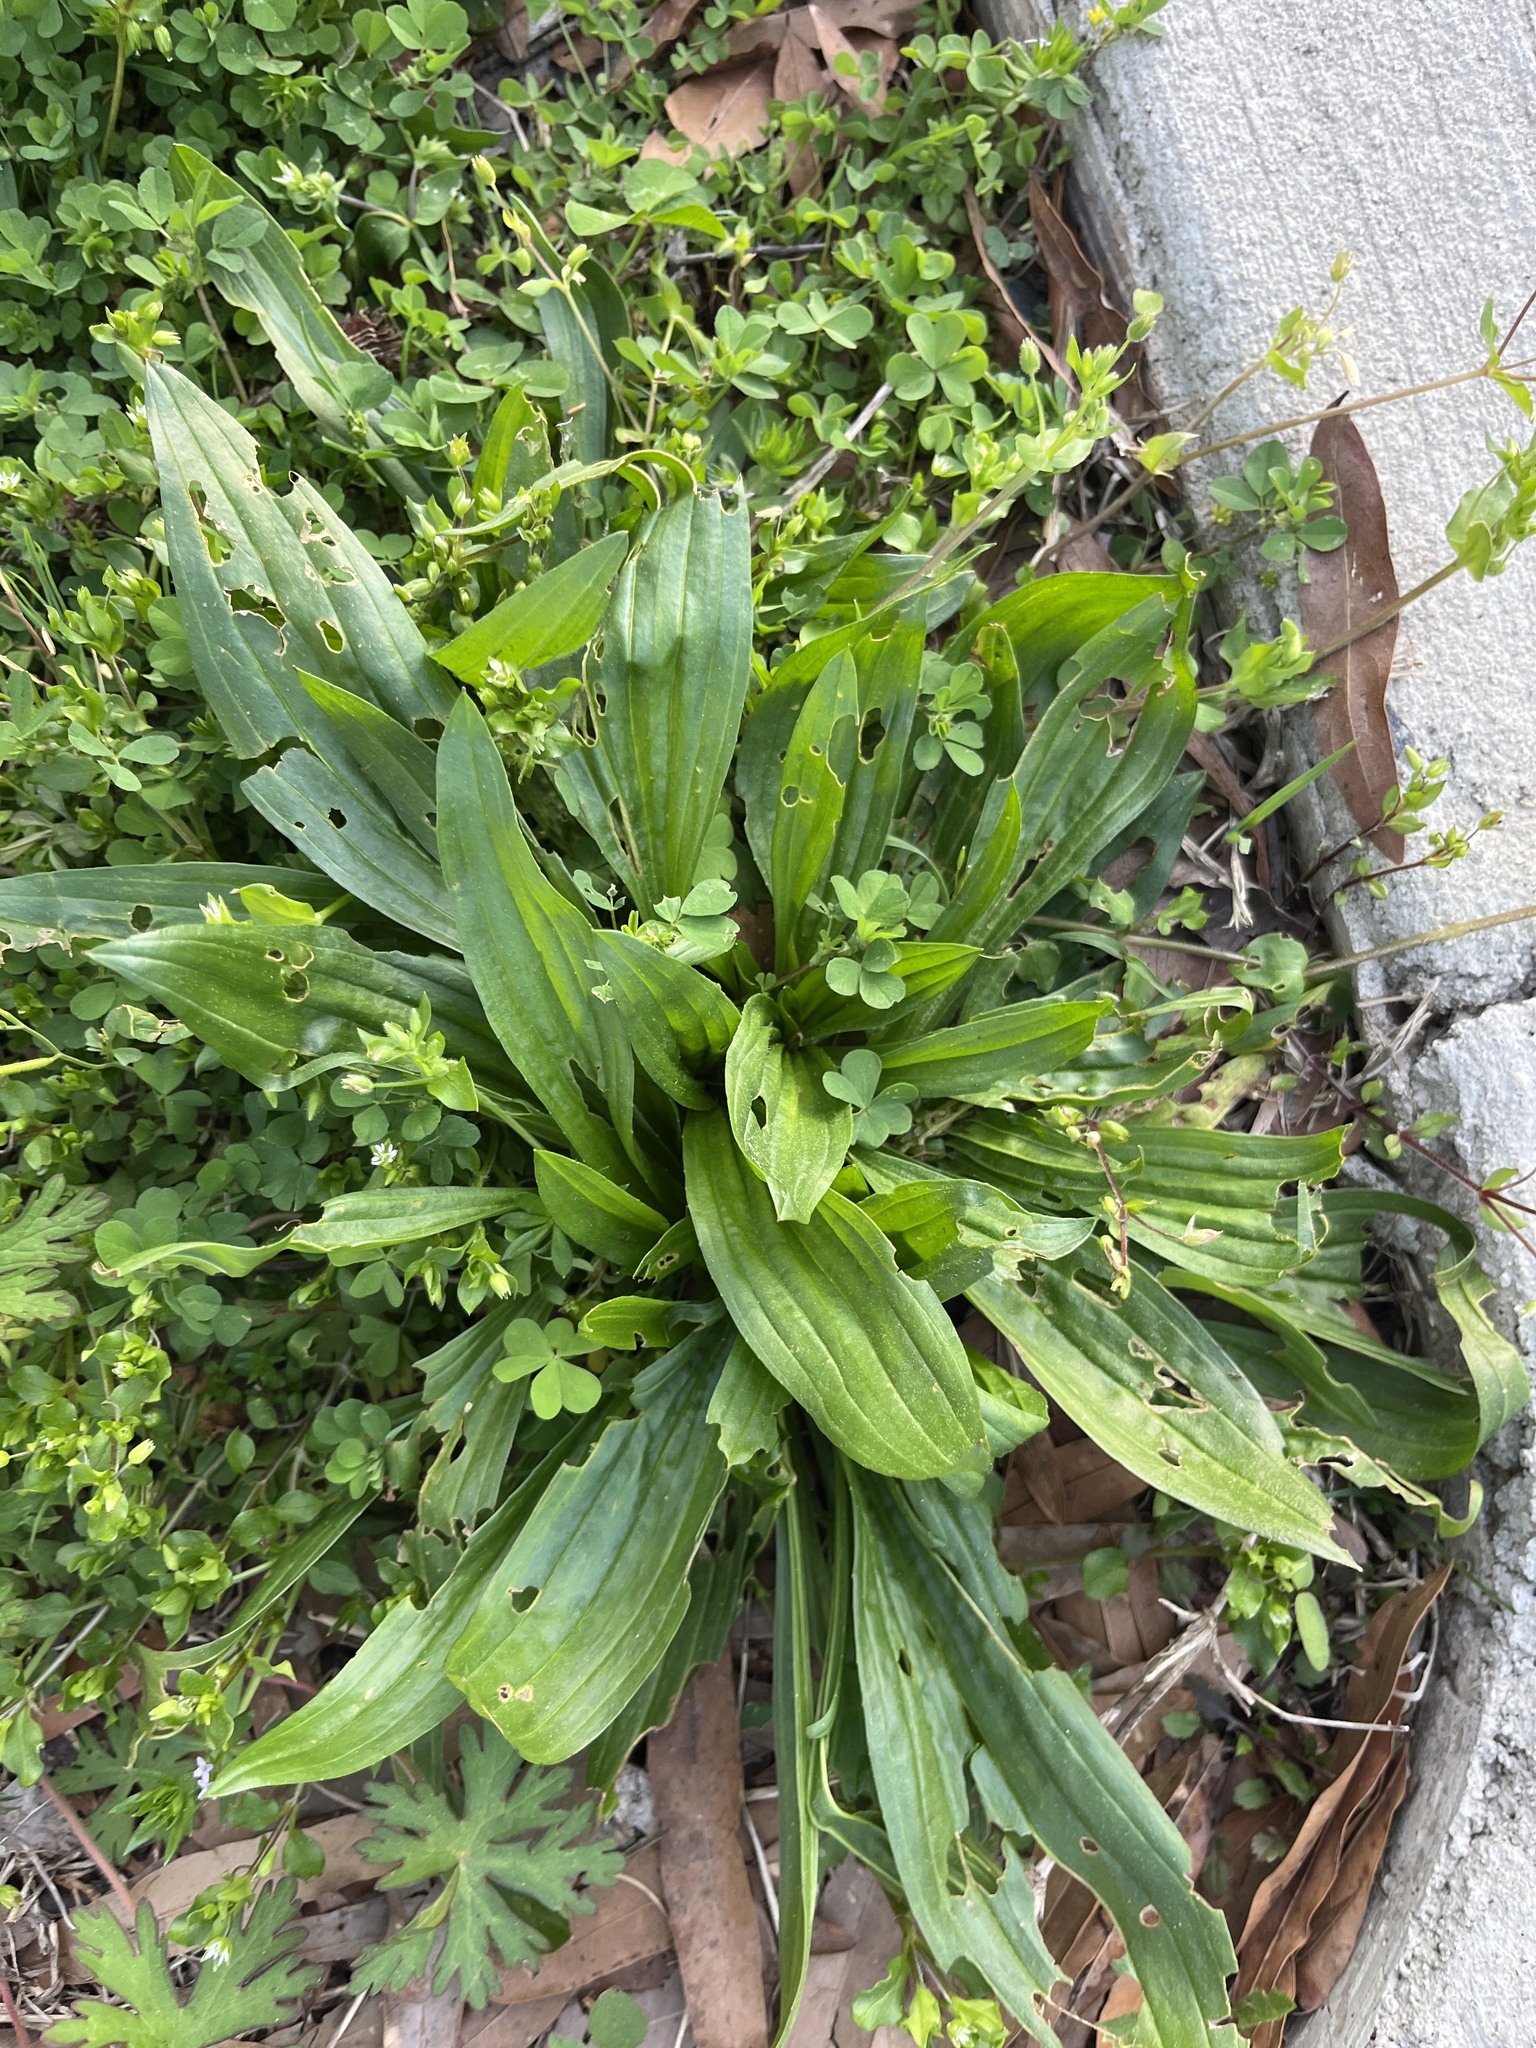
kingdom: Plantae
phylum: Tracheophyta
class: Magnoliopsida
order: Lamiales
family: Plantaginaceae
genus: Plantago
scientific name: Plantago lanceolata
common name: Ribwort plantain
